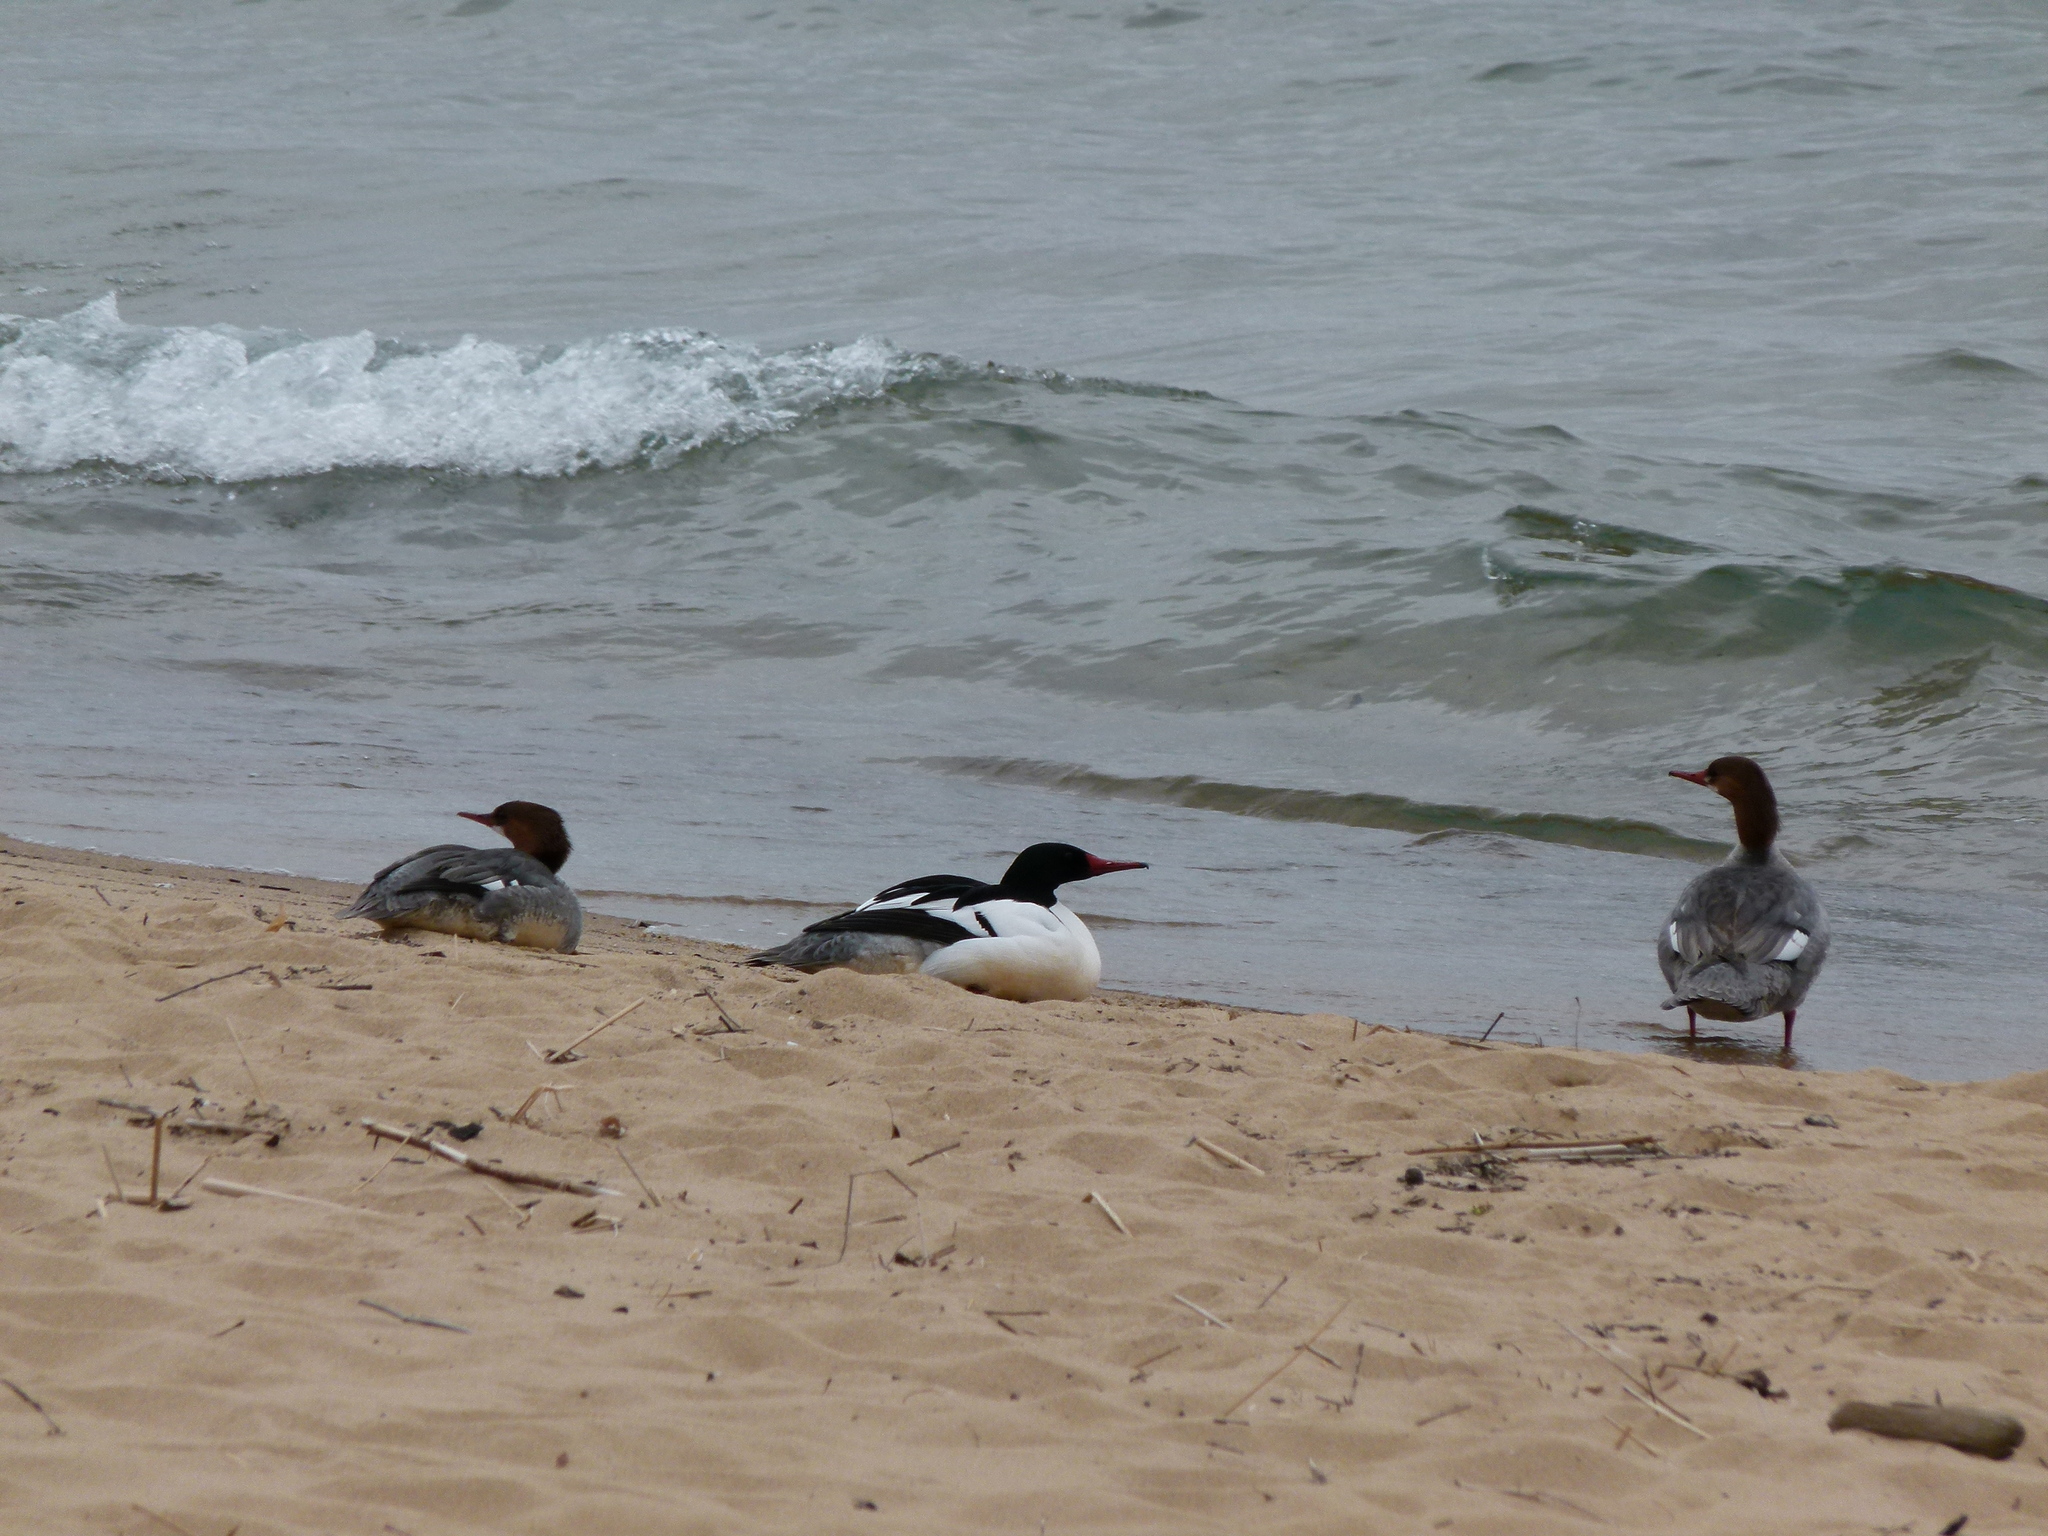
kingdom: Animalia
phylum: Chordata
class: Aves
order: Anseriformes
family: Anatidae
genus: Mergus
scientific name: Mergus merganser
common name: Common merganser
